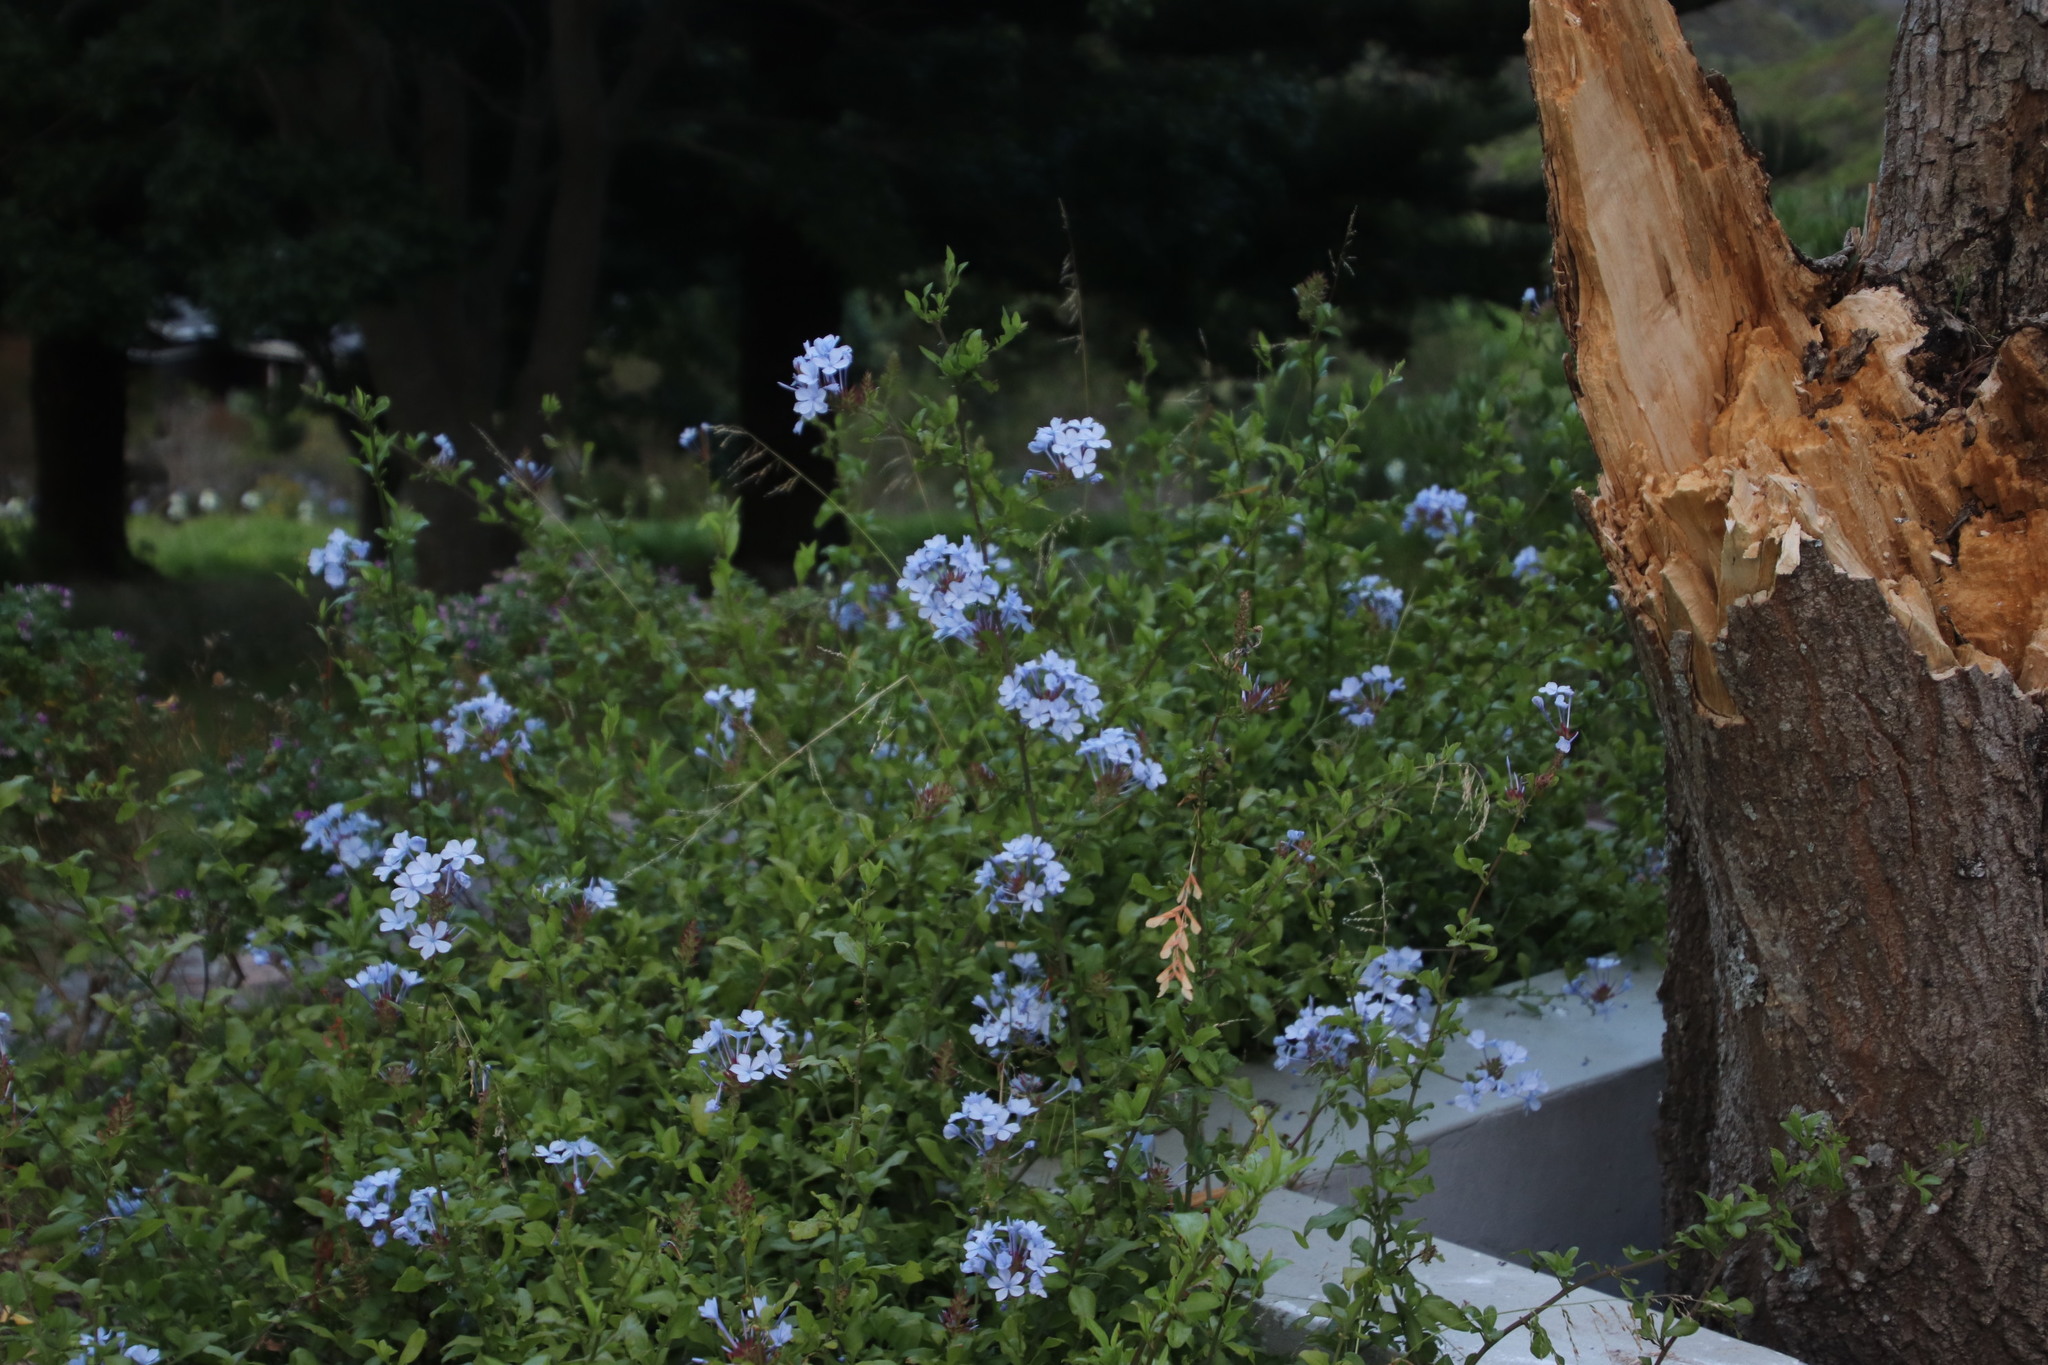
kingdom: Plantae
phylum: Tracheophyta
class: Magnoliopsida
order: Caryophyllales
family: Plumbaginaceae
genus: Plumbago
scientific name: Plumbago auriculata
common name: Cape leadwort
